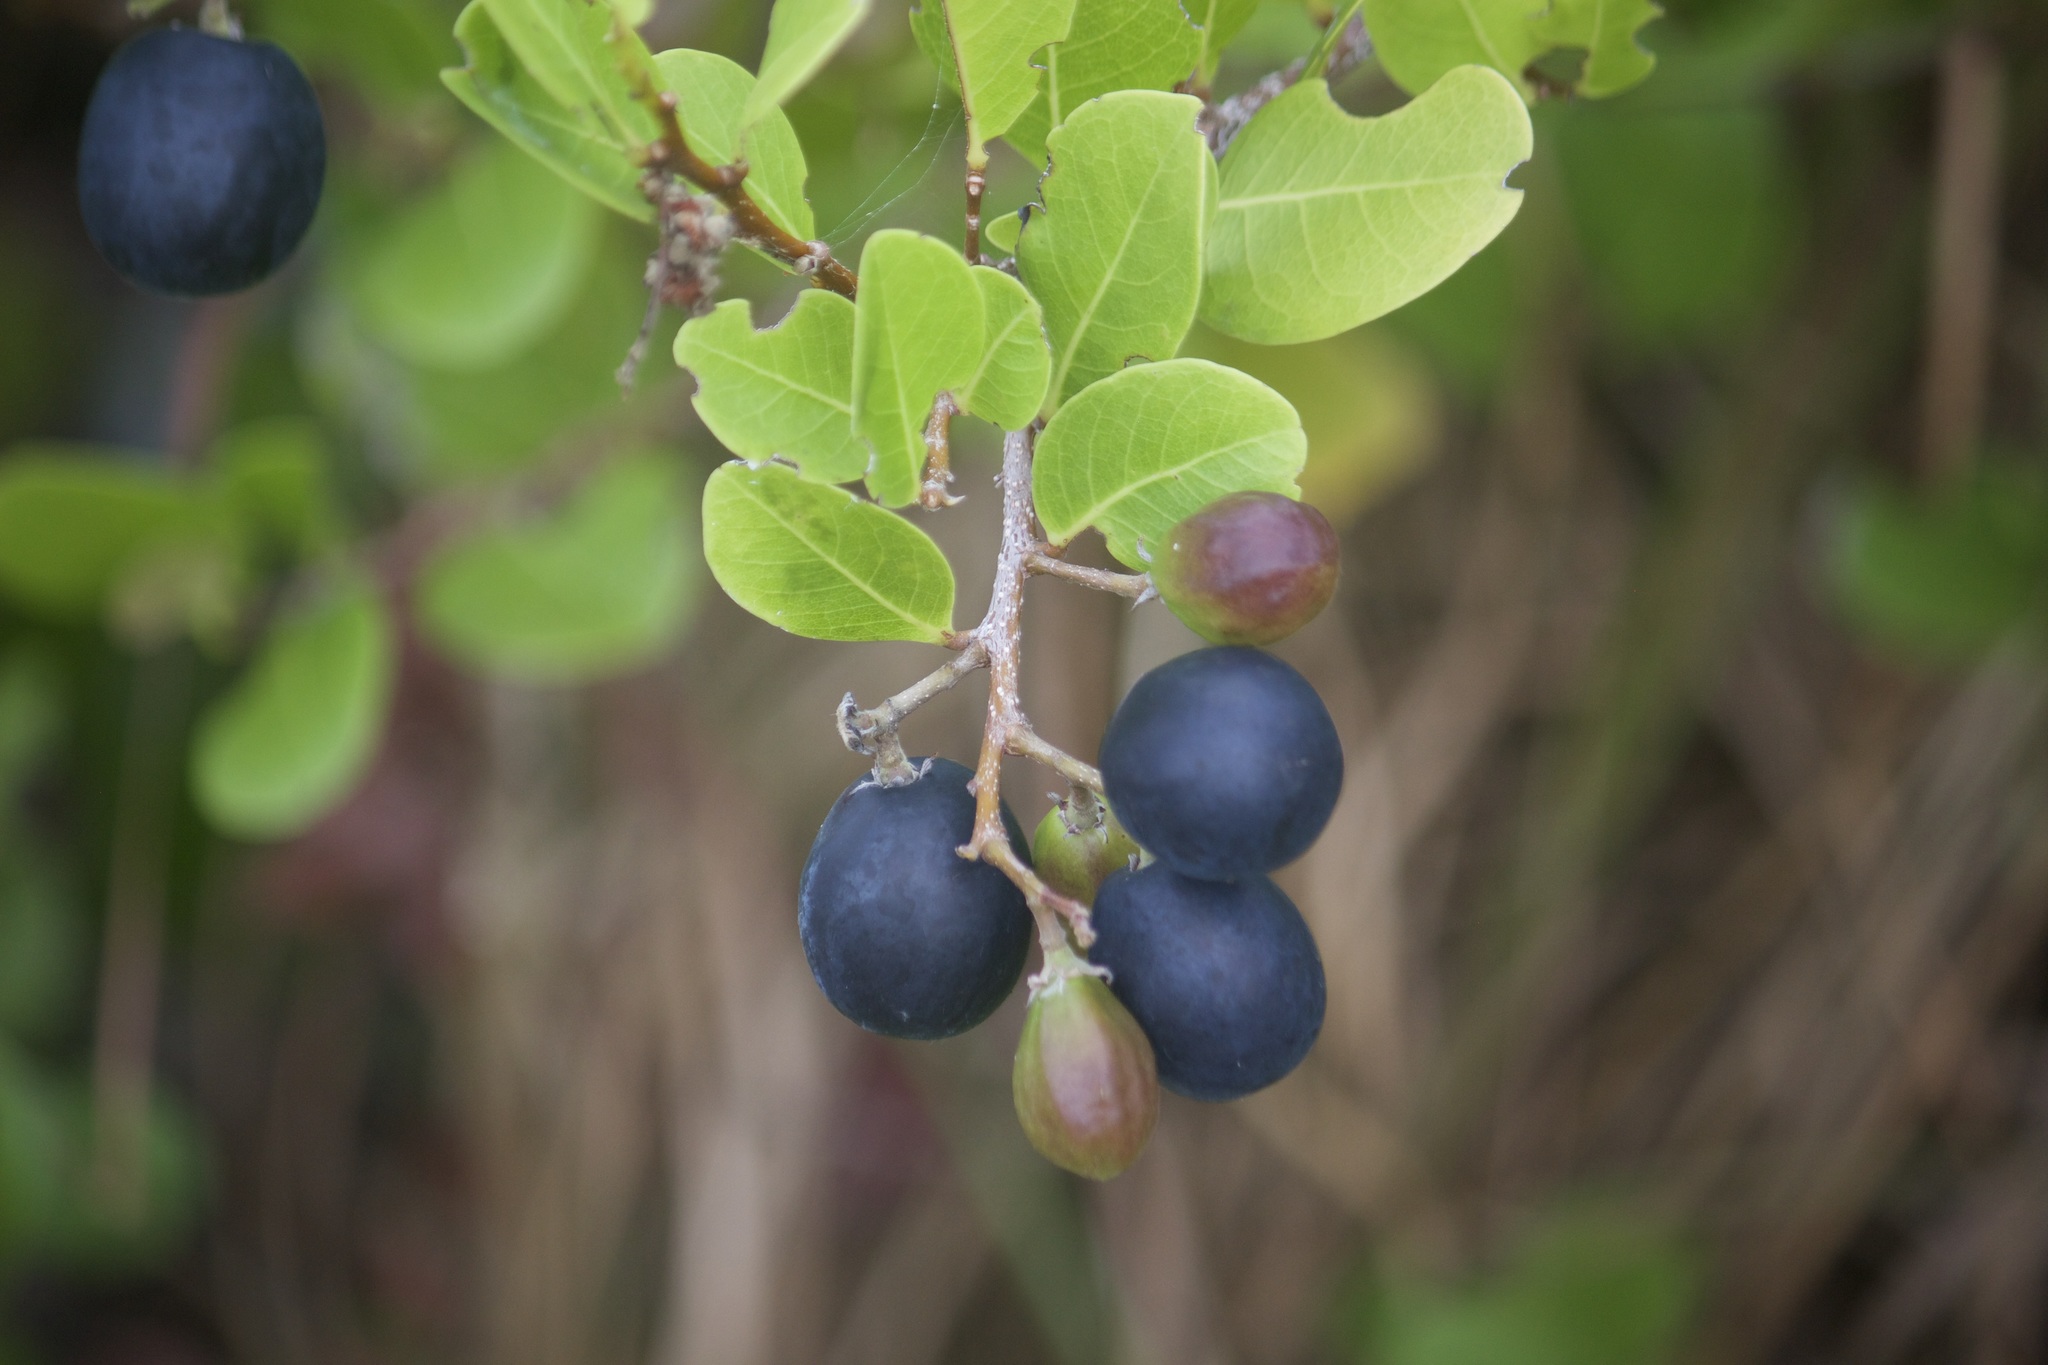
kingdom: Plantae
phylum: Tracheophyta
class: Magnoliopsida
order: Malpighiales
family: Chrysobalanaceae
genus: Chrysobalanus
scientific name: Chrysobalanus icaco
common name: Coco plum
